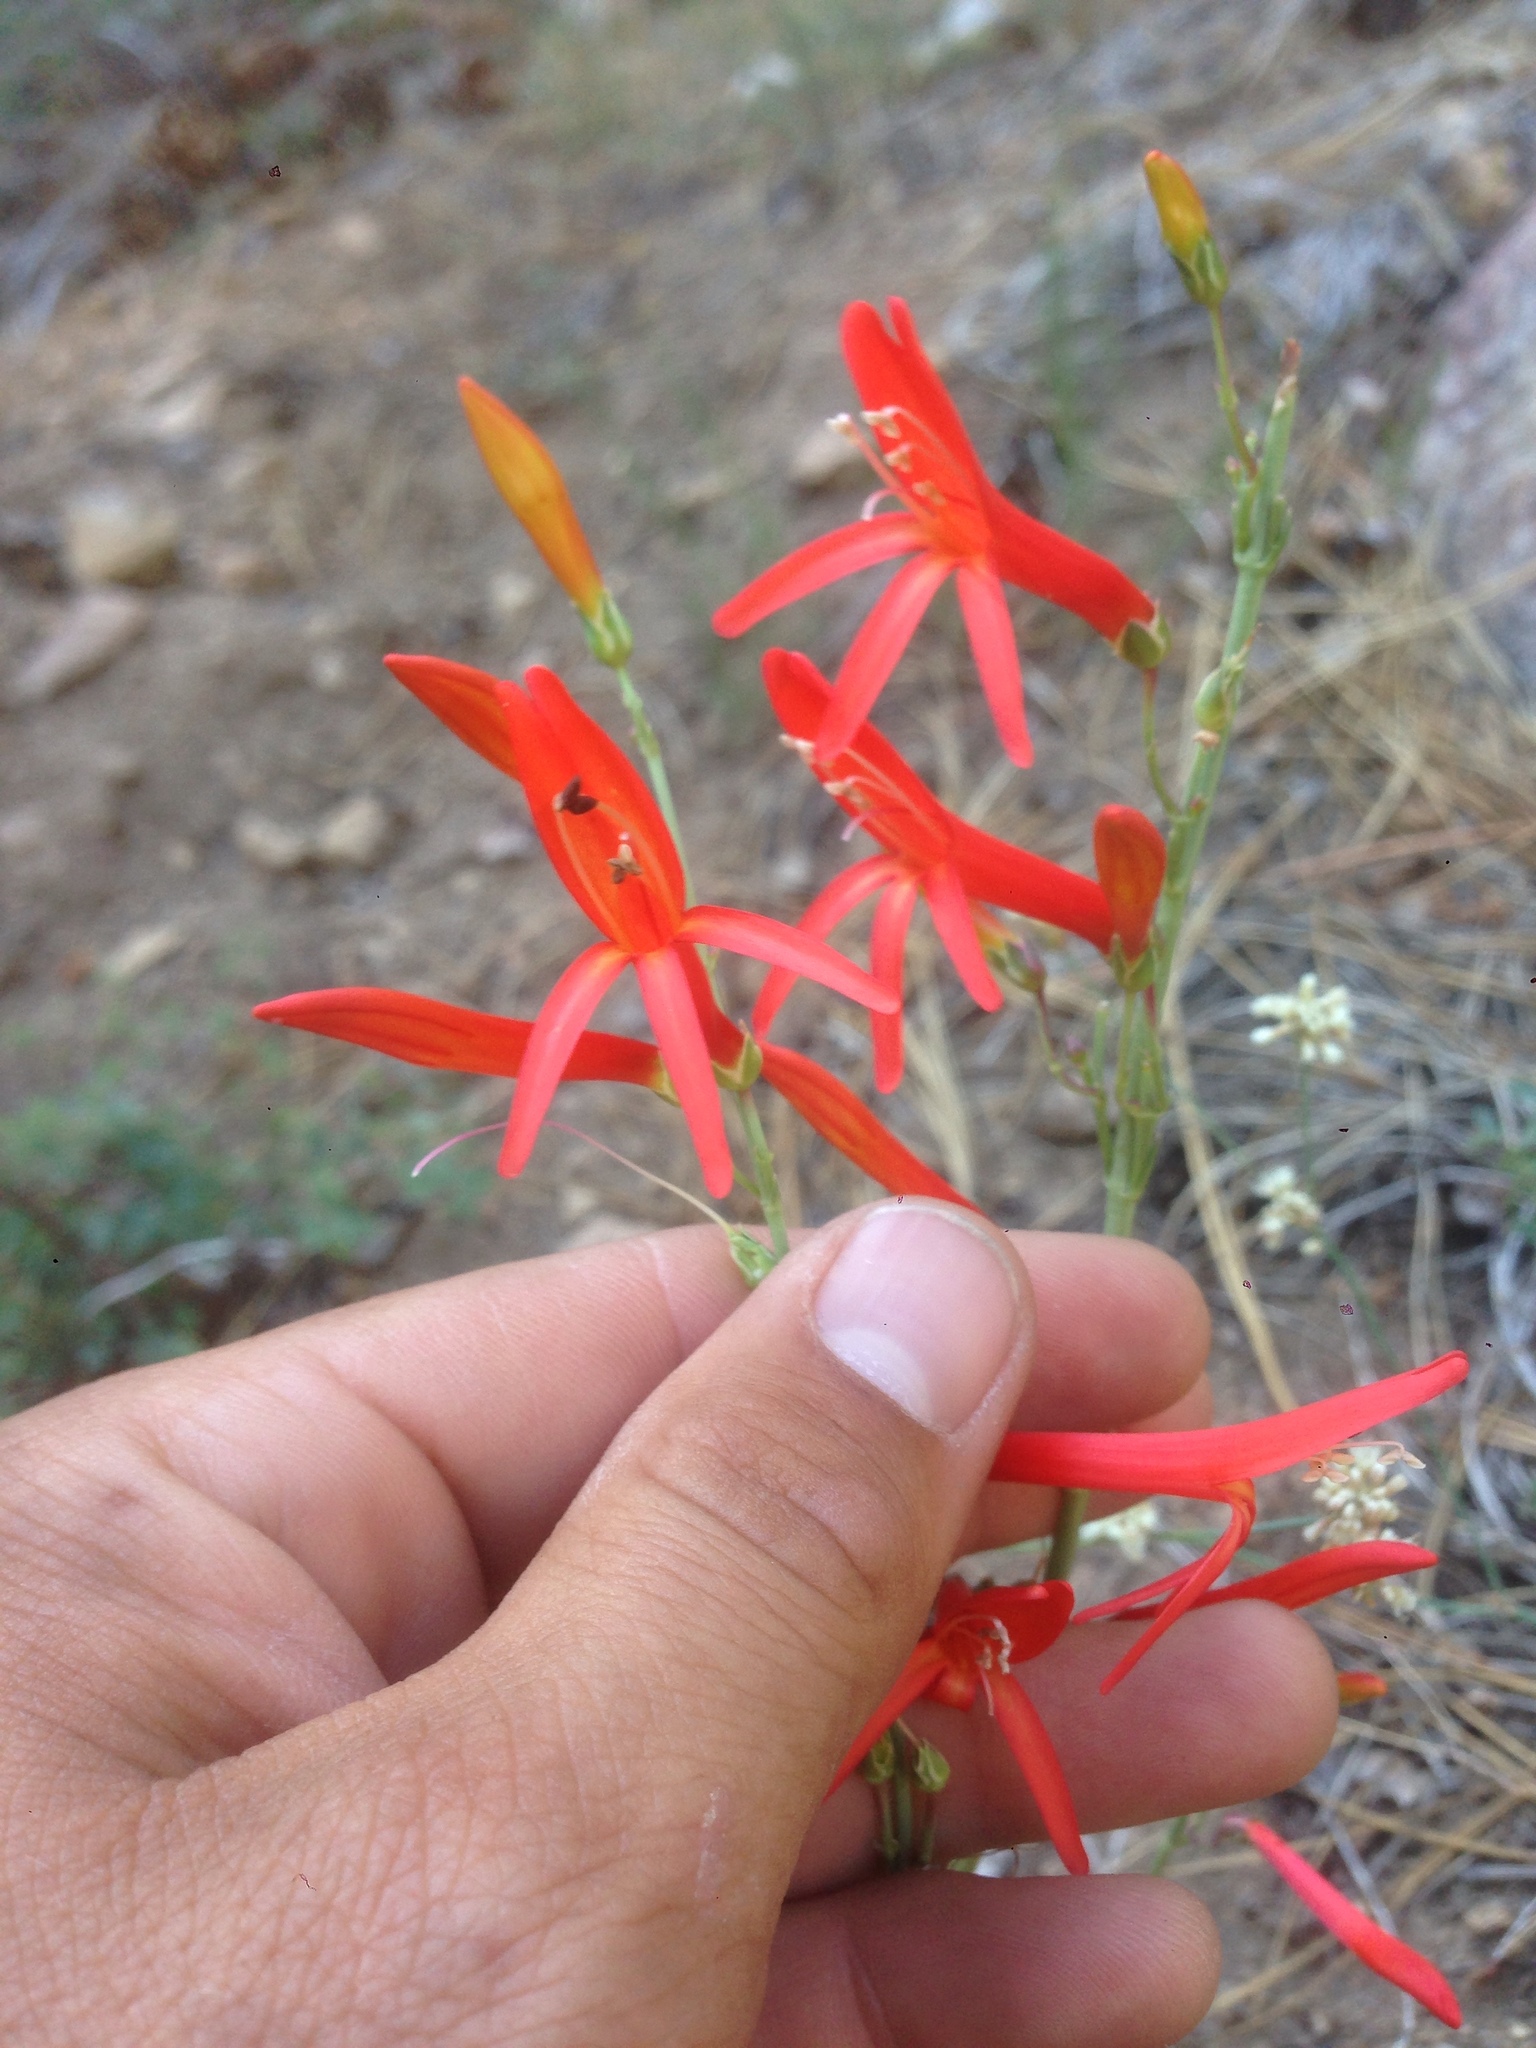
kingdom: Plantae
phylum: Tracheophyta
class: Magnoliopsida
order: Lamiales
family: Plantaginaceae
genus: Penstemon
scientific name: Penstemon labrosus
